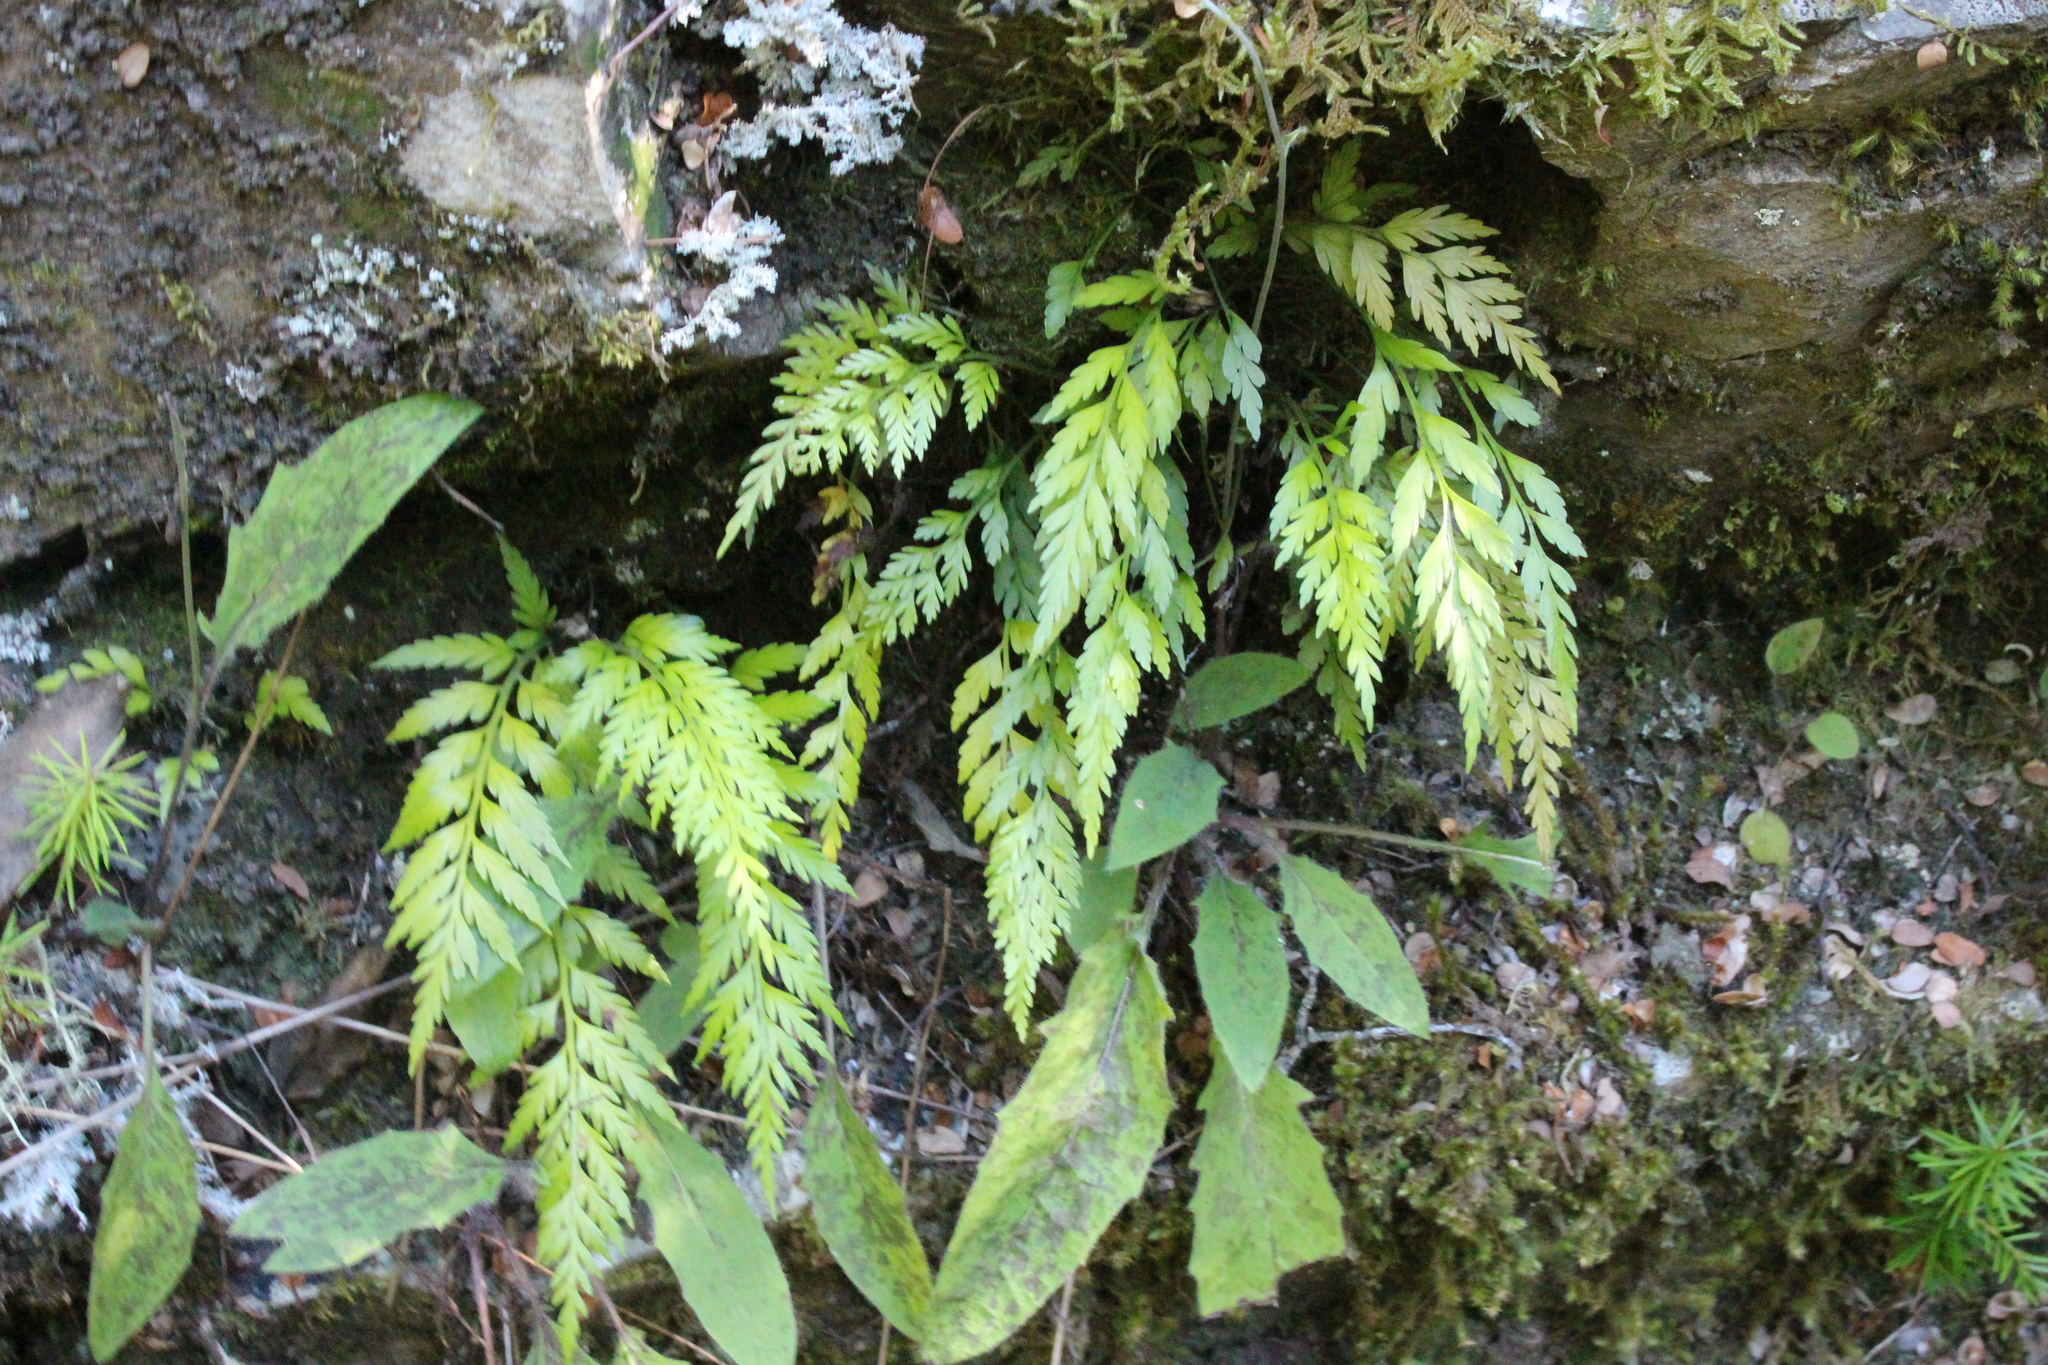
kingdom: Plantae
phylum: Tracheophyta
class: Polypodiopsida
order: Polypodiales
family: Aspleniaceae
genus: Asplenium
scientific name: Asplenium appendiculatum
